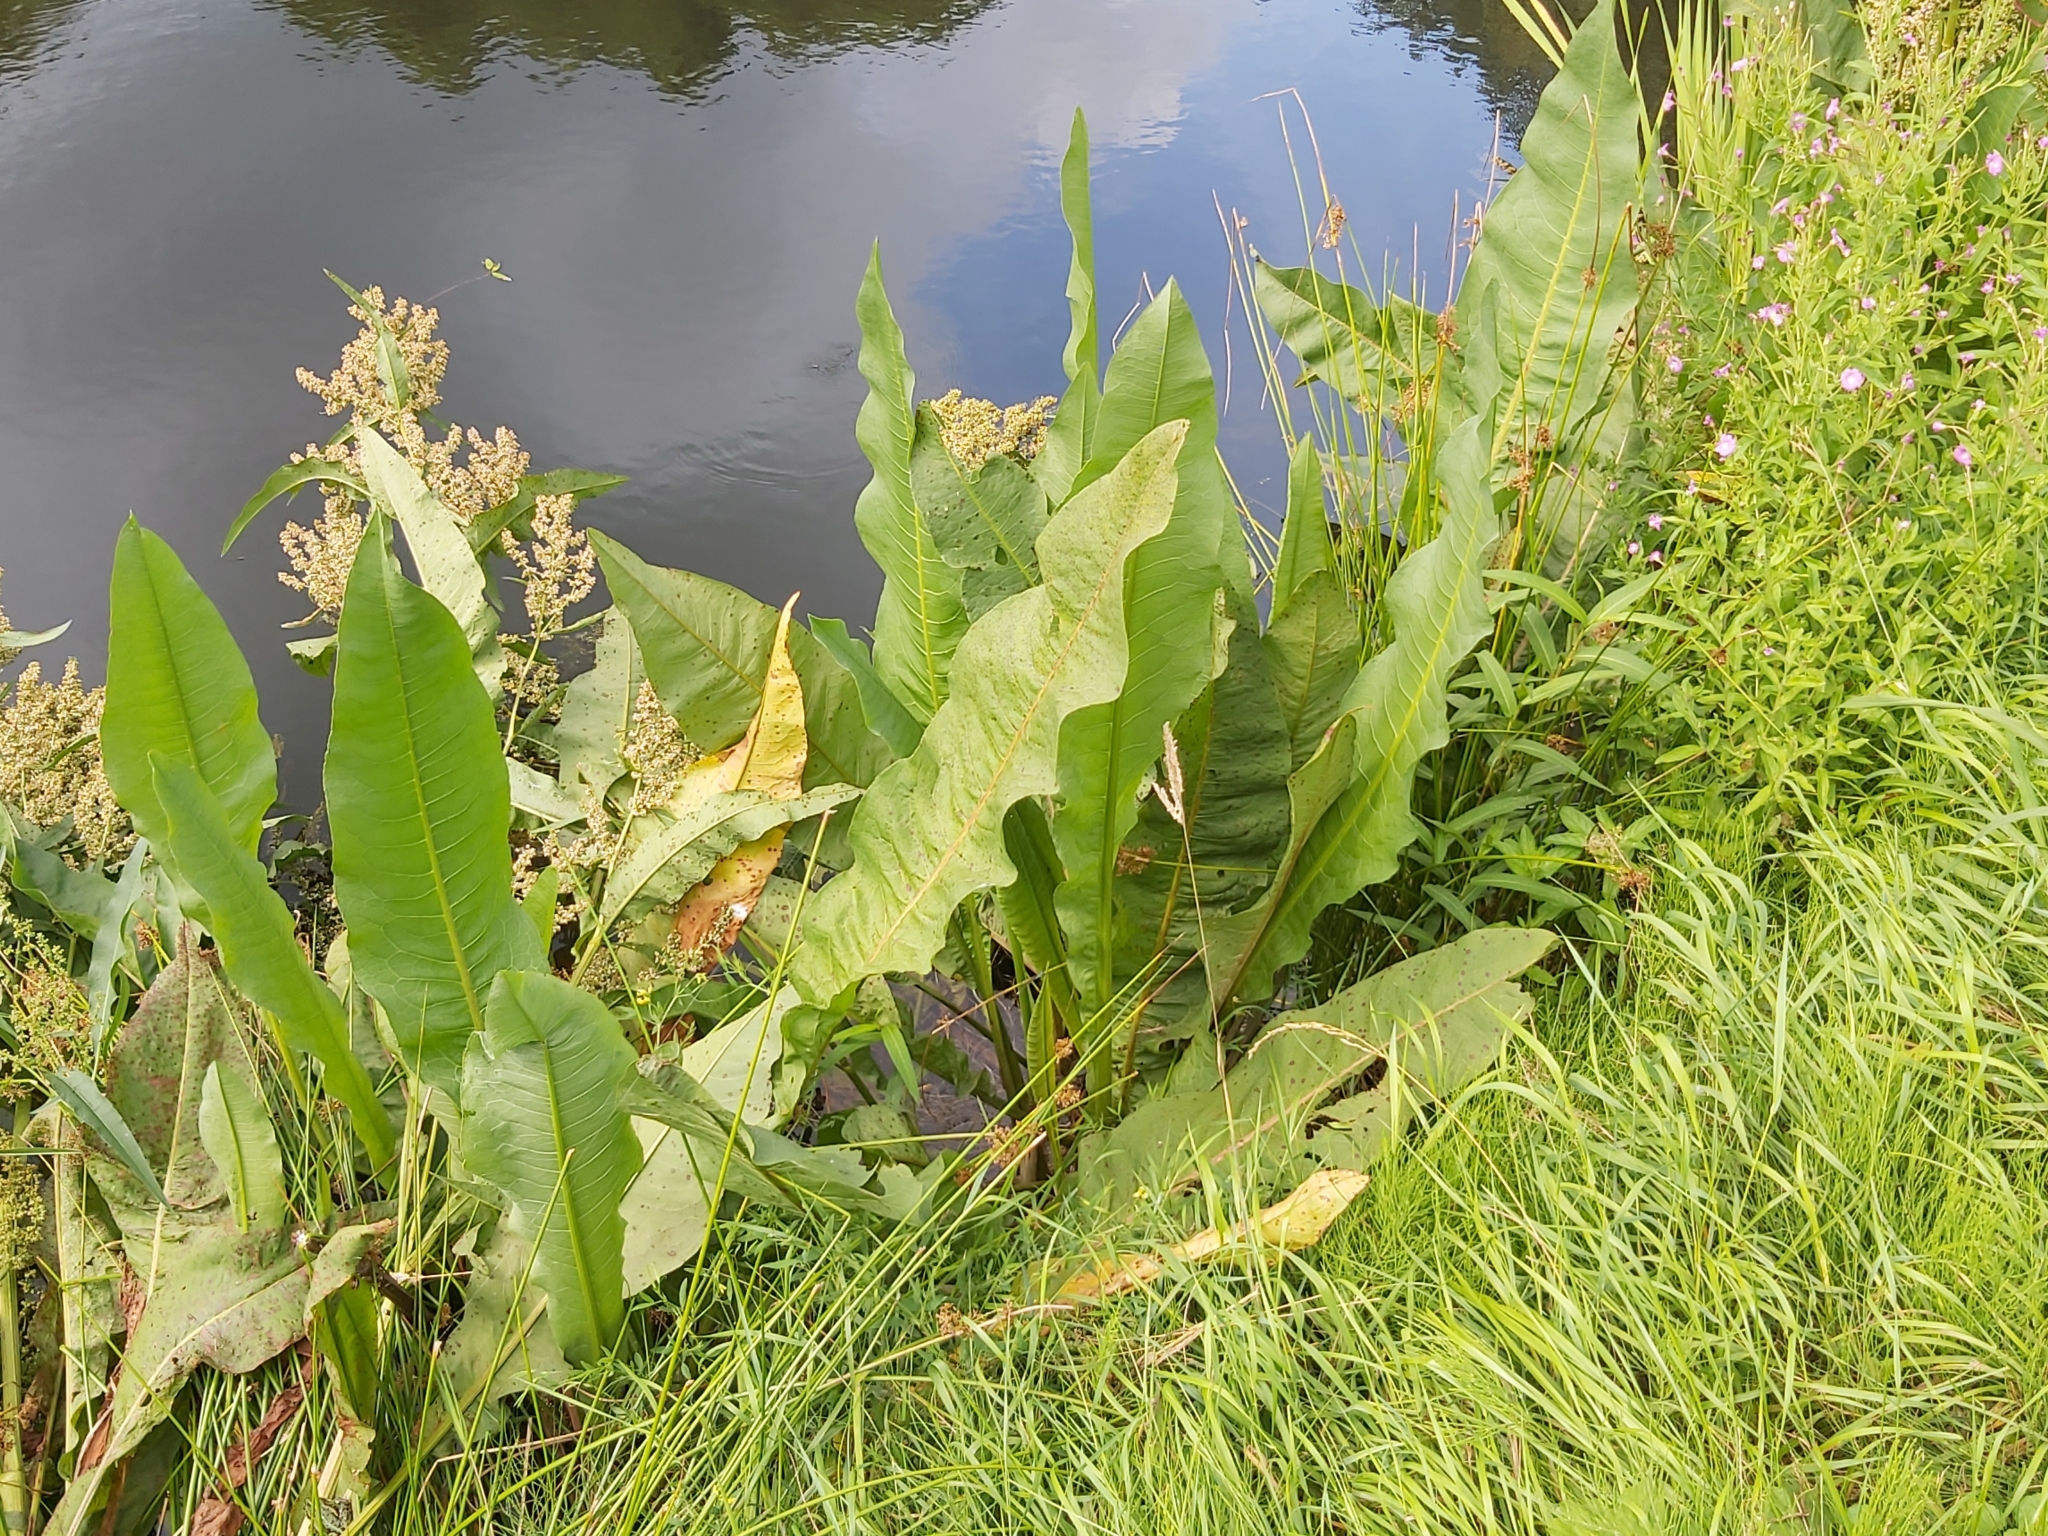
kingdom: Plantae
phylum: Tracheophyta
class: Magnoliopsida
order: Caryophyllales
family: Polygonaceae
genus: Rumex
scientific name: Rumex hydrolapathum
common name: Water dock
